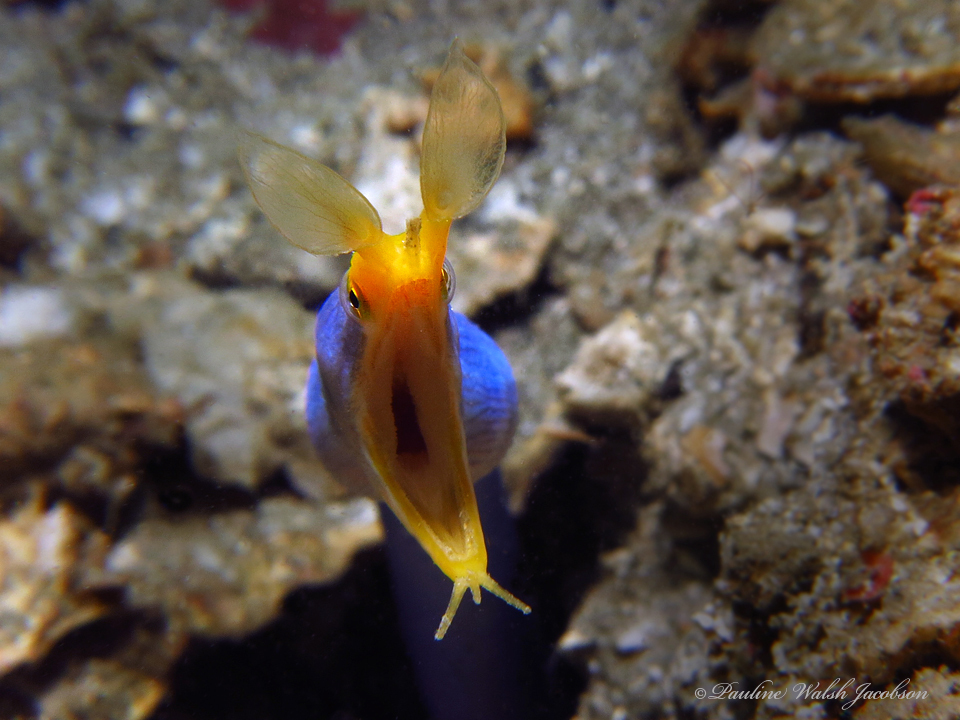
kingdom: Animalia
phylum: Chordata
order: Anguilliformes
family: Muraenidae
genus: Rhinomuraena
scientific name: Rhinomuraena quaesita
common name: Ribbon eel
